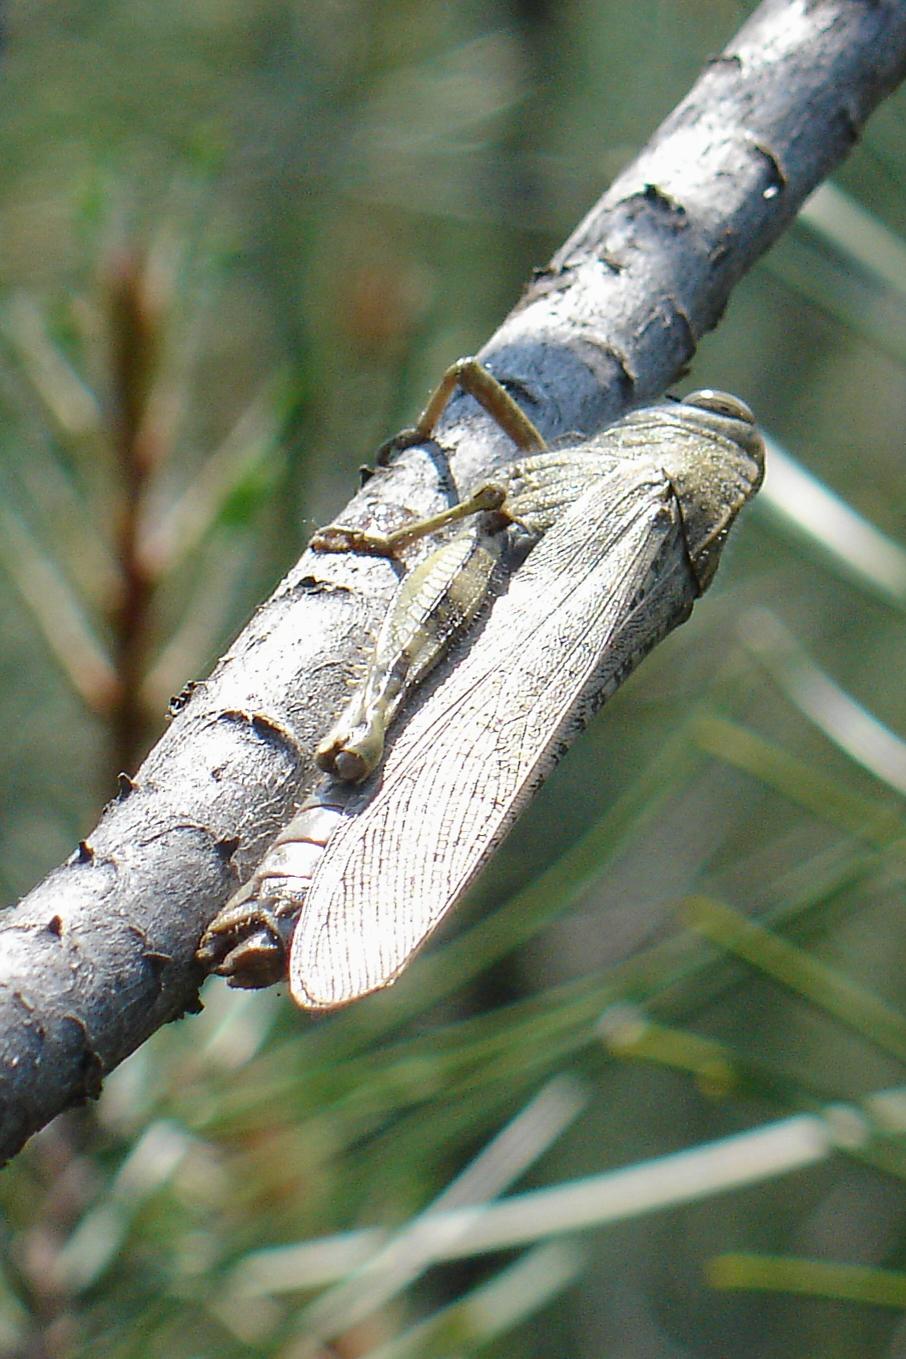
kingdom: Animalia
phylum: Arthropoda
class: Insecta
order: Orthoptera
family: Acrididae
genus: Anacridium
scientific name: Anacridium aegyptium
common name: Egyptian grasshopper
